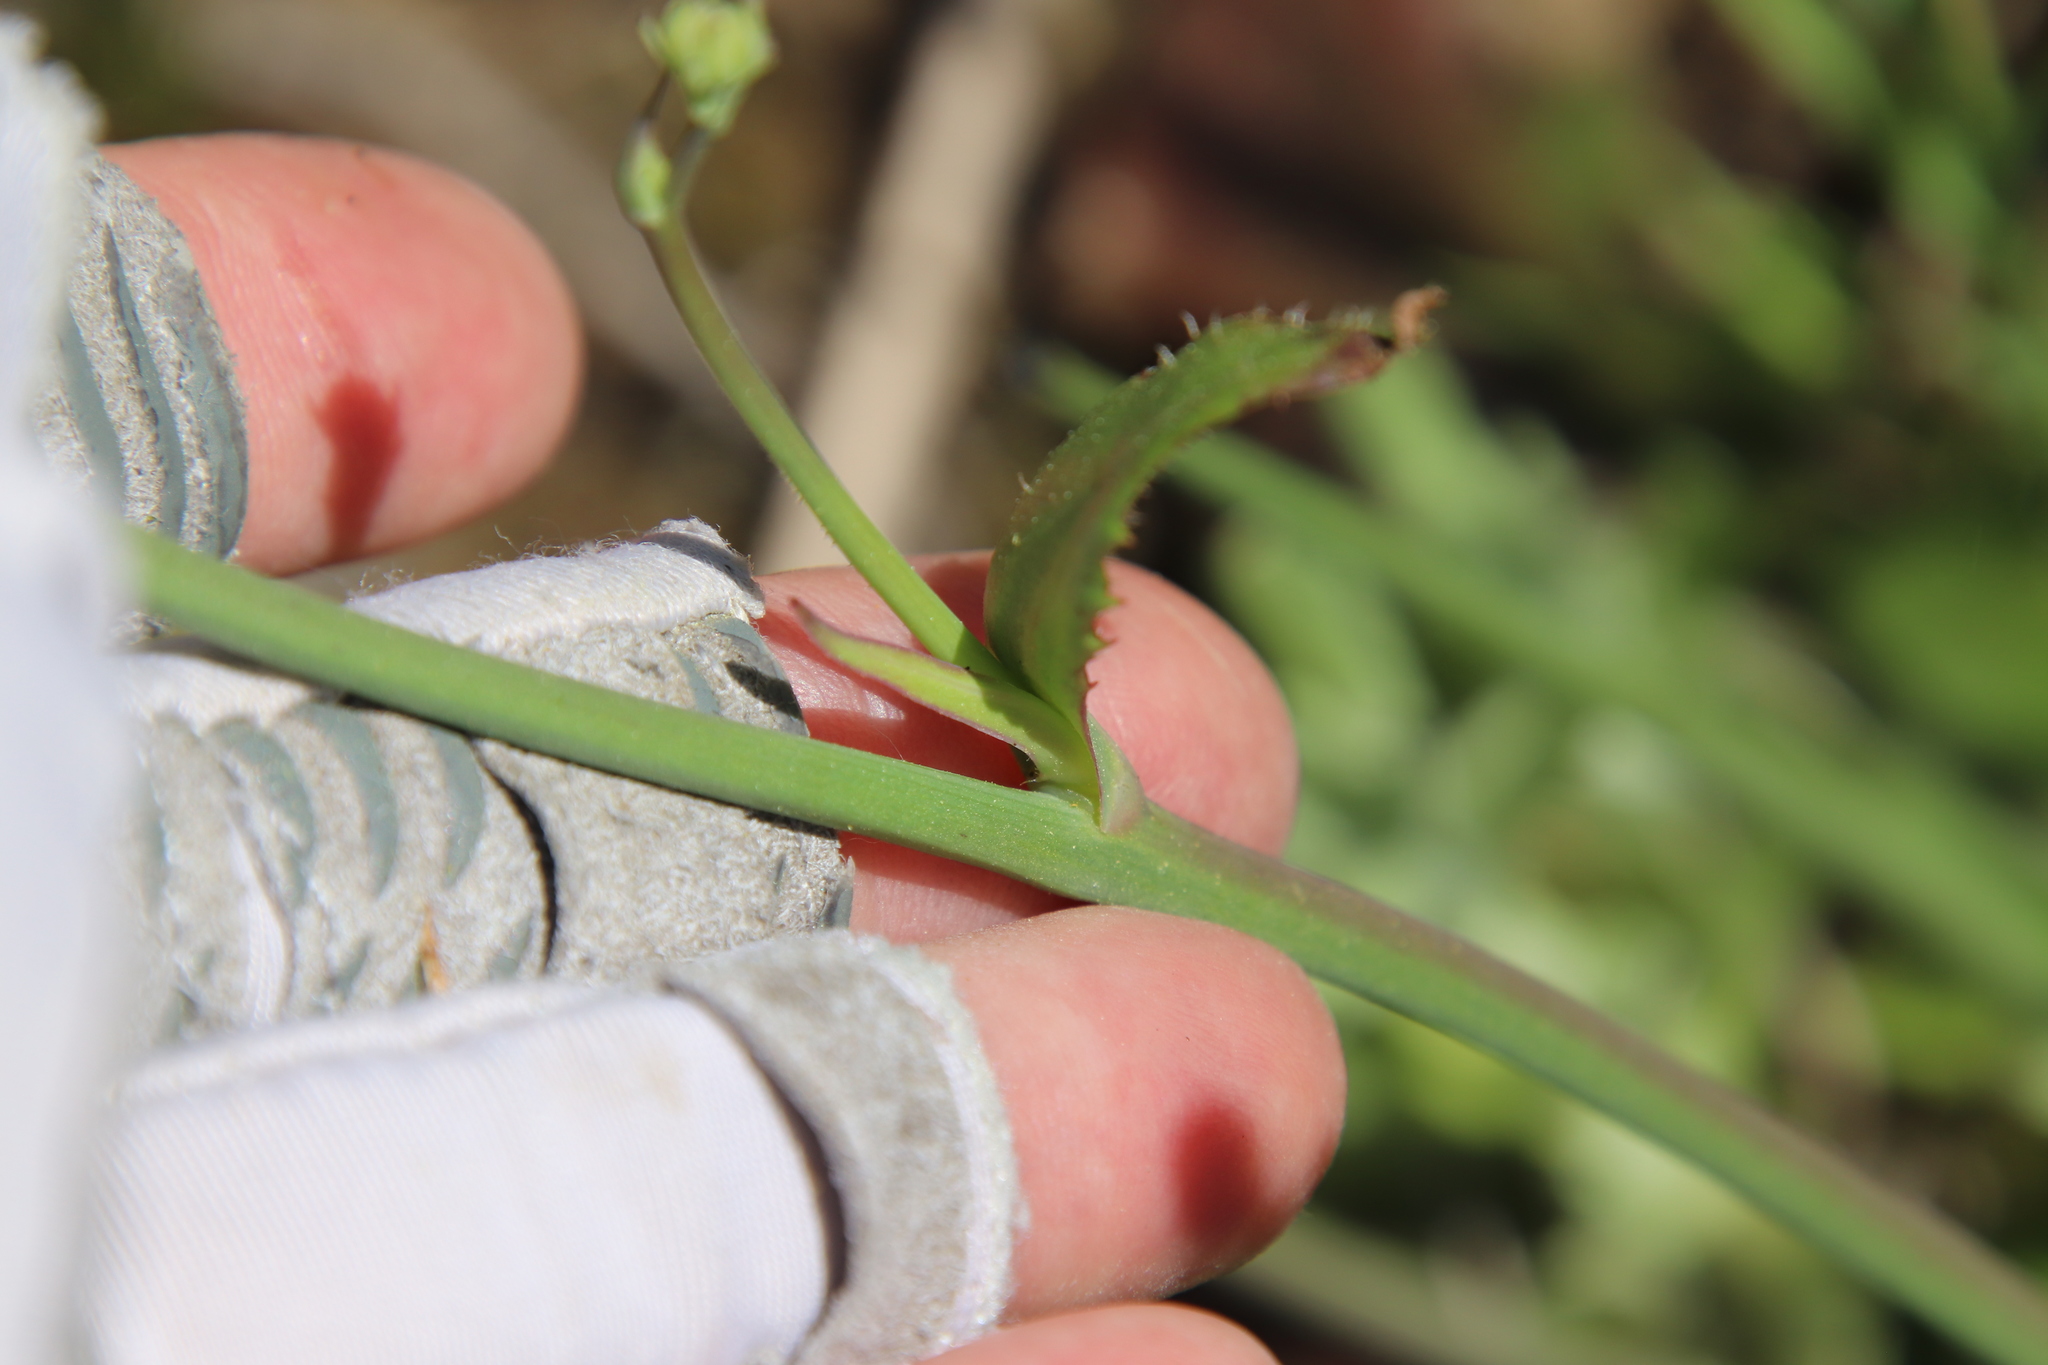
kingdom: Plantae
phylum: Tracheophyta
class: Magnoliopsida
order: Asterales
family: Asteraceae
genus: Hypochaeris
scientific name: Hypochaeris glabra
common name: Smooth catsear
